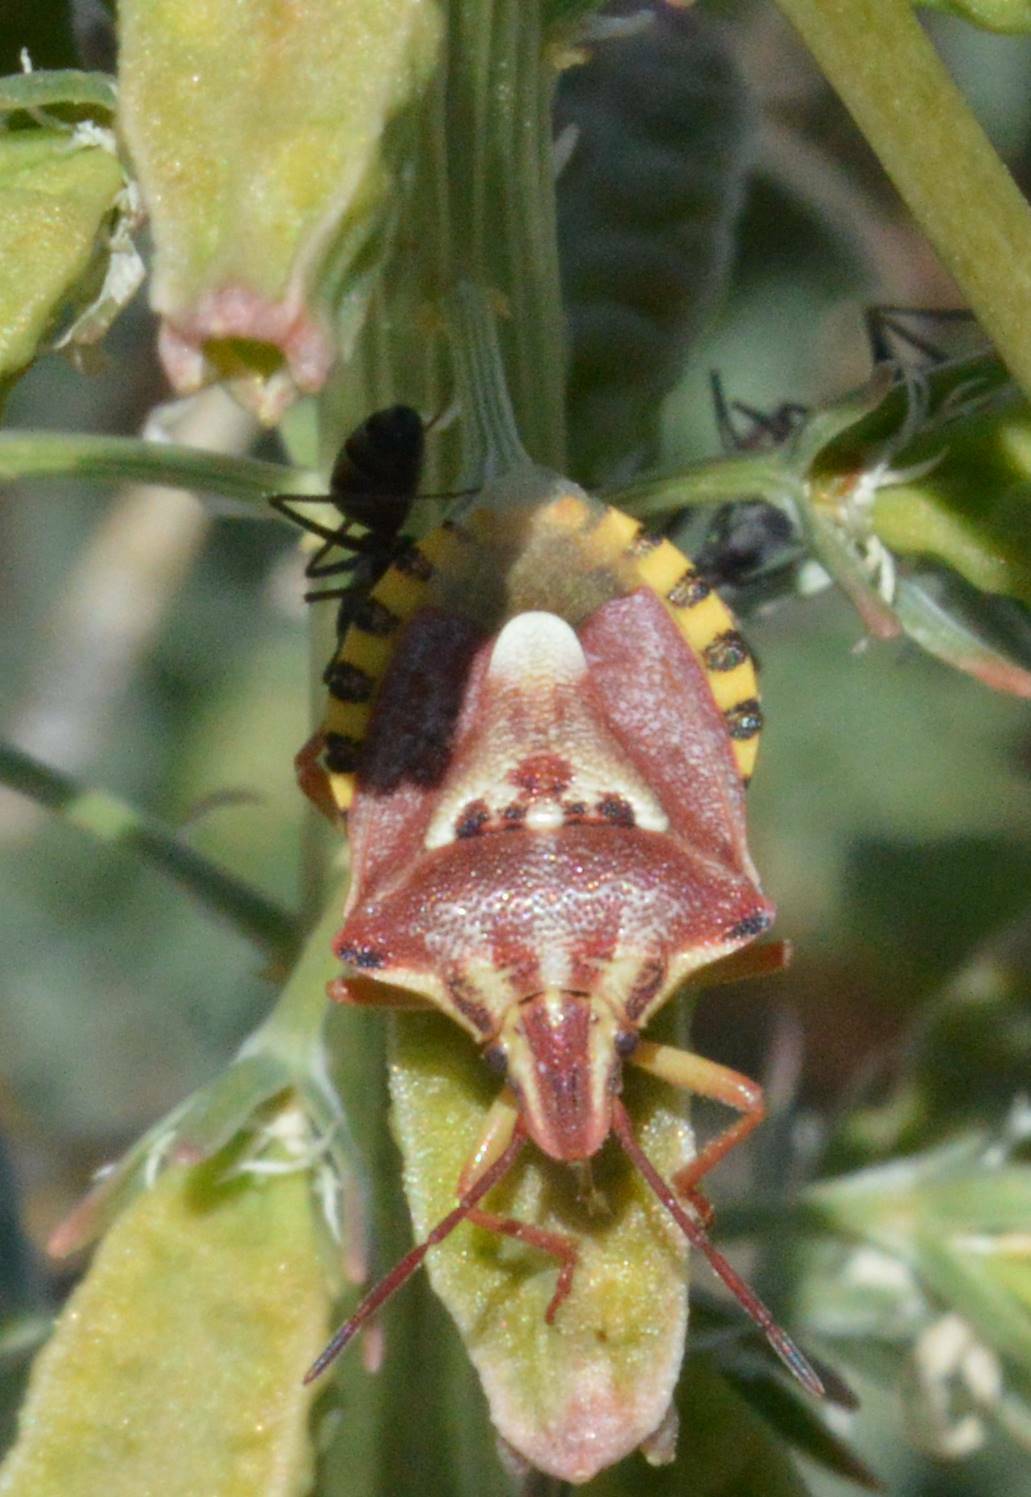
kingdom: Animalia
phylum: Arthropoda
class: Insecta
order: Hemiptera
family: Miridae
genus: Orthops
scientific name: Orthops kalmii
